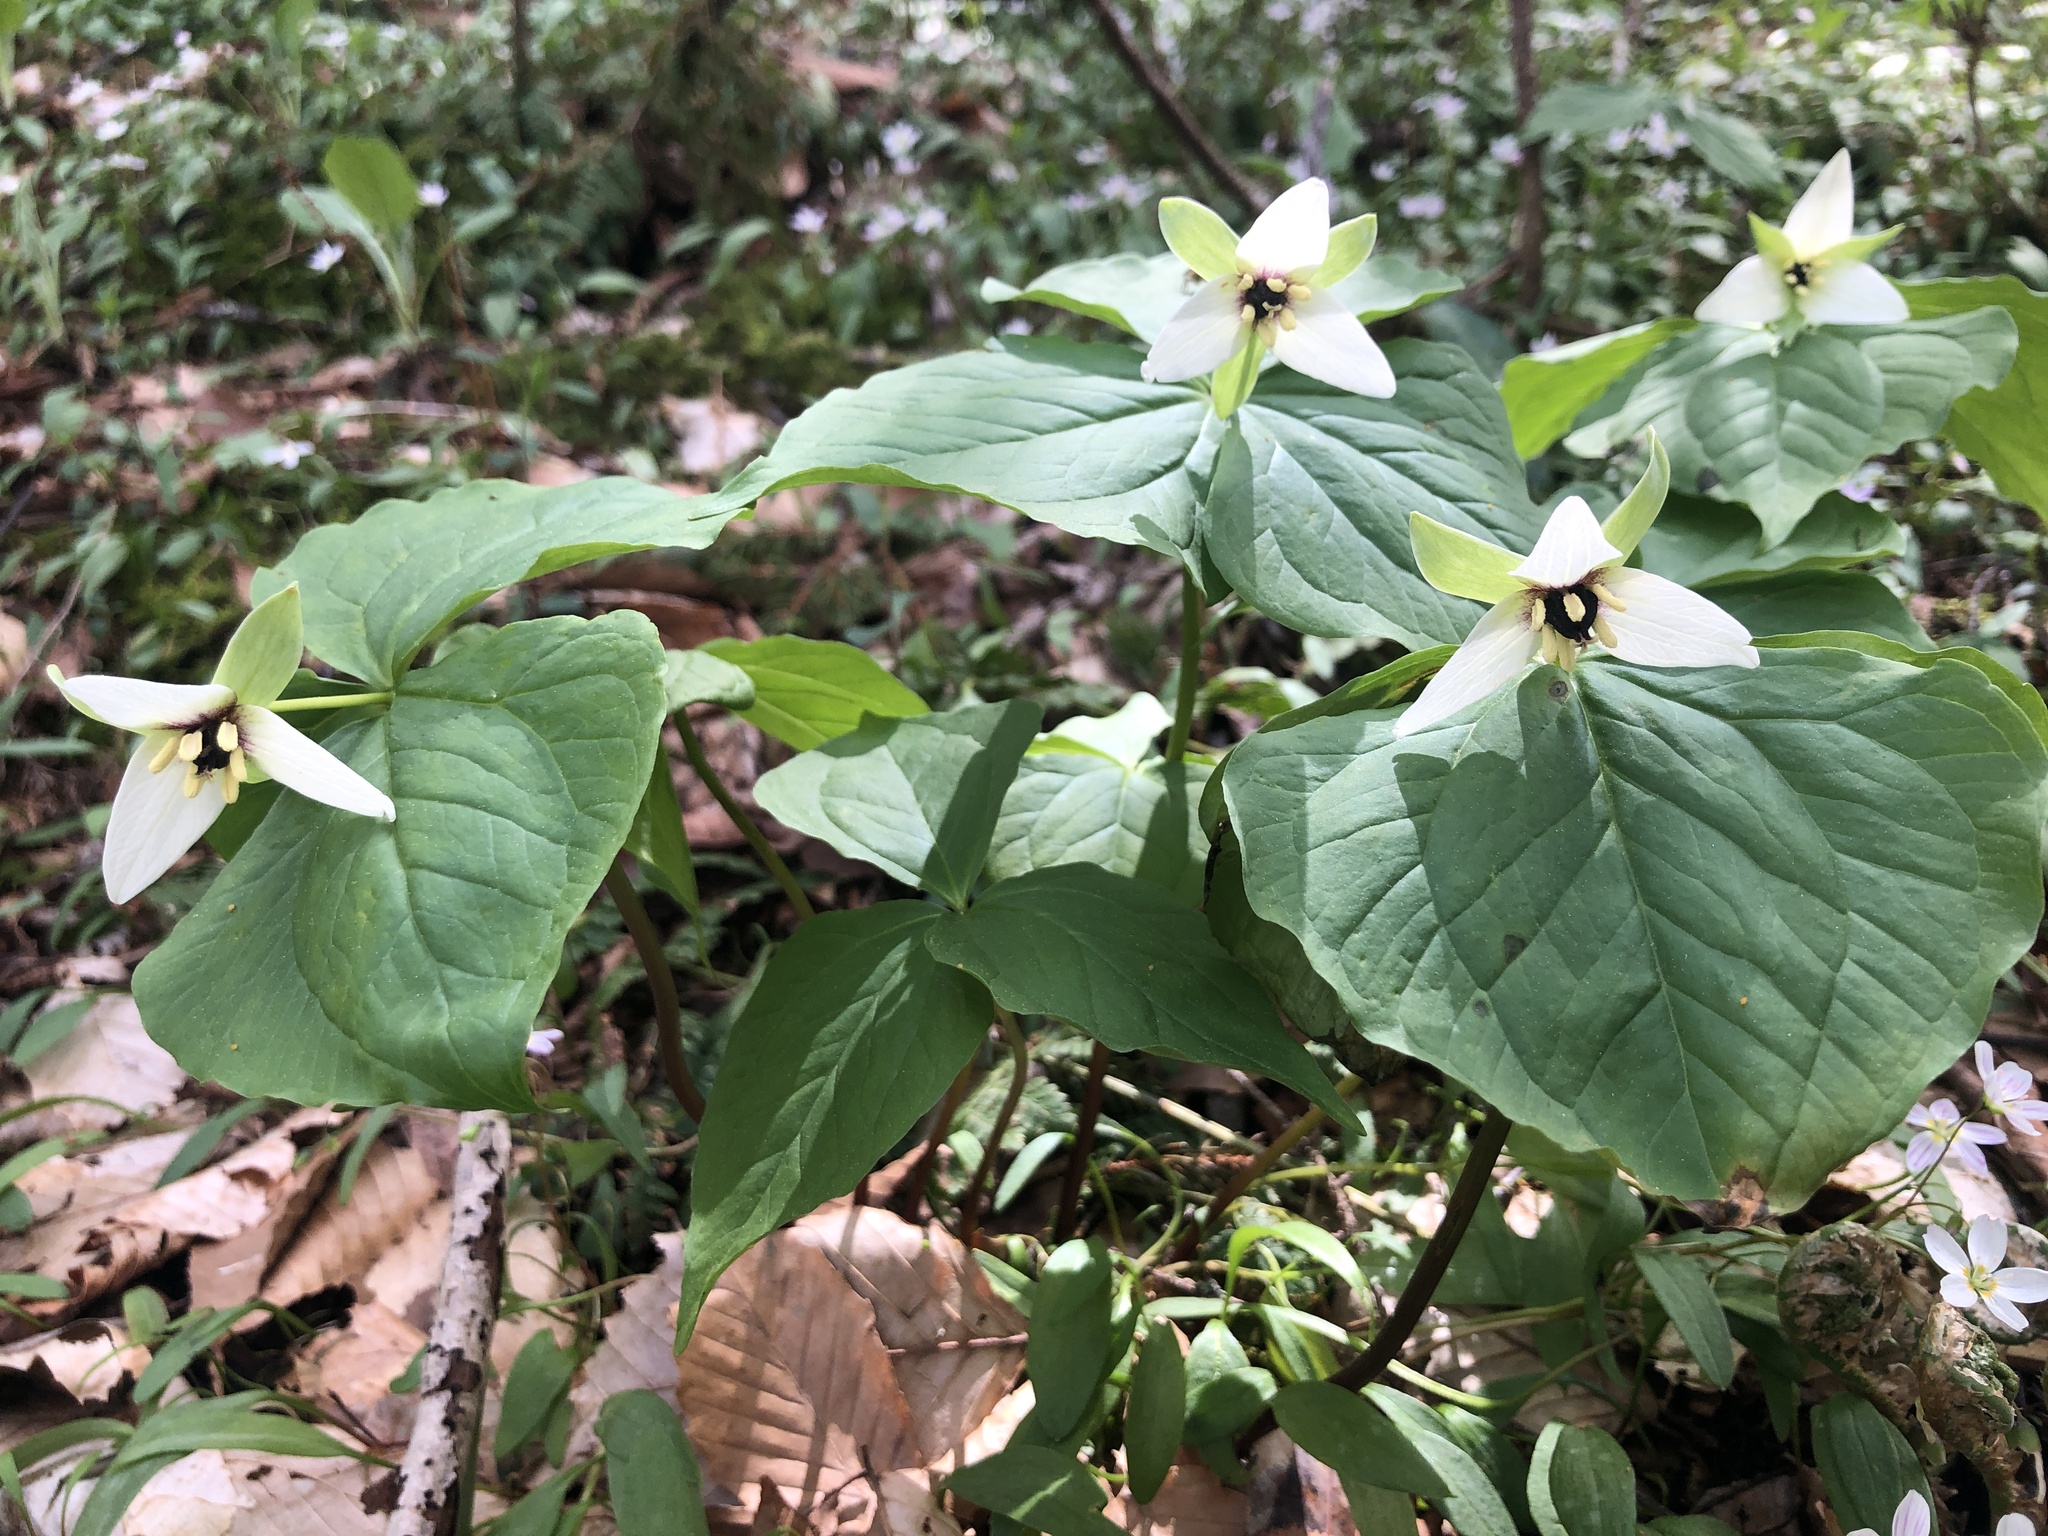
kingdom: Plantae
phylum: Tracheophyta
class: Liliopsida
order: Liliales
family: Melanthiaceae
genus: Trillium
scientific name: Trillium erectum
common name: Purple trillium
